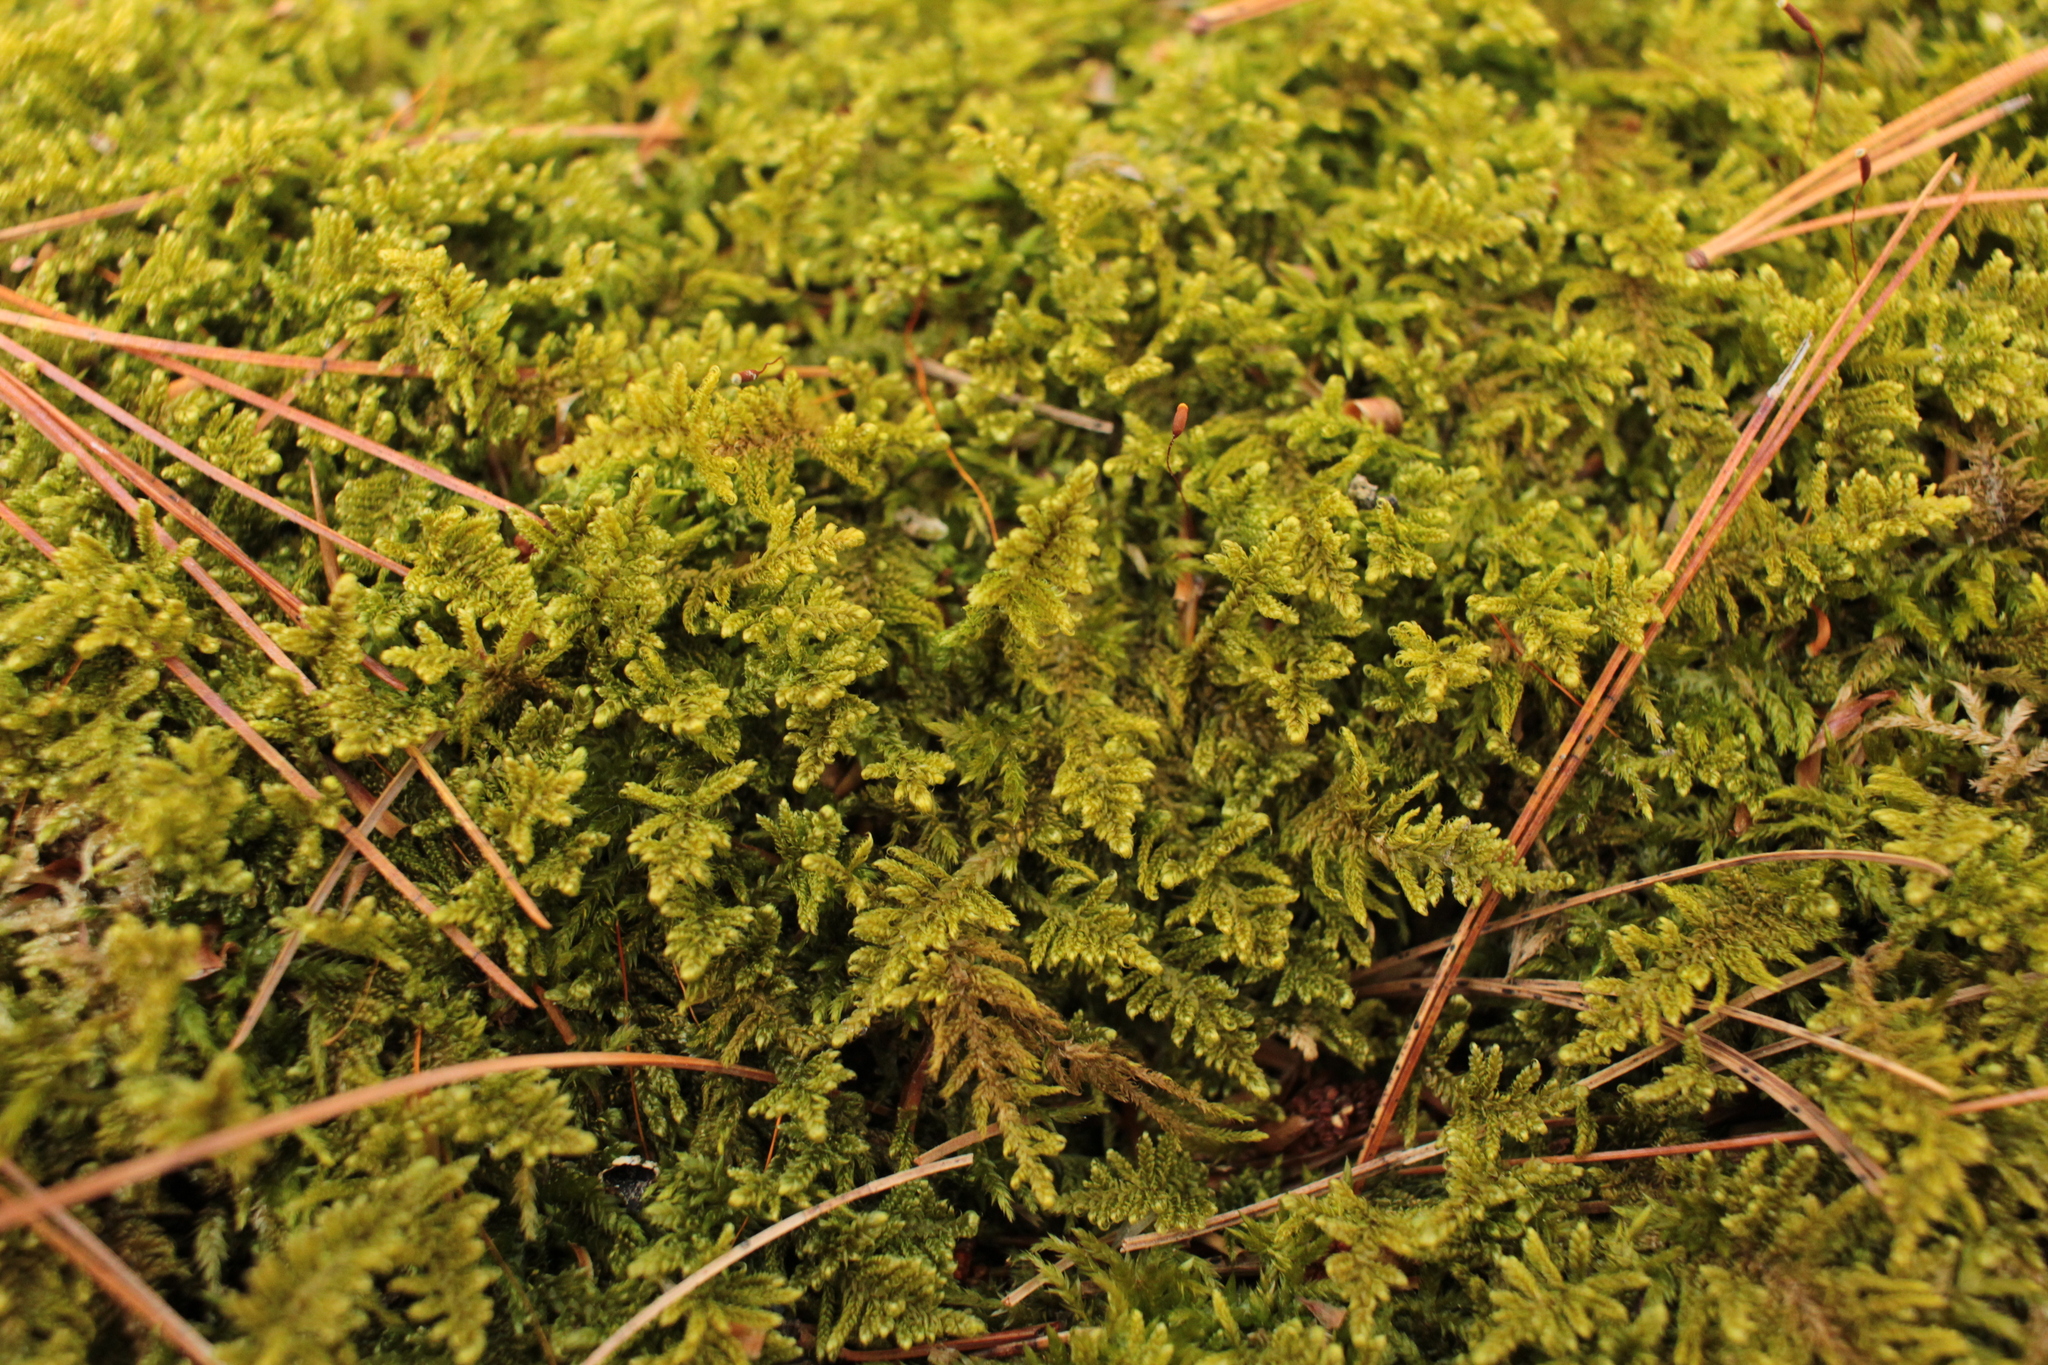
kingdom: Plantae
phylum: Bryophyta
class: Bryopsida
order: Hypnales
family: Callicladiaceae
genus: Callicladium
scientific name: Callicladium imponens
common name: Brocade moss
